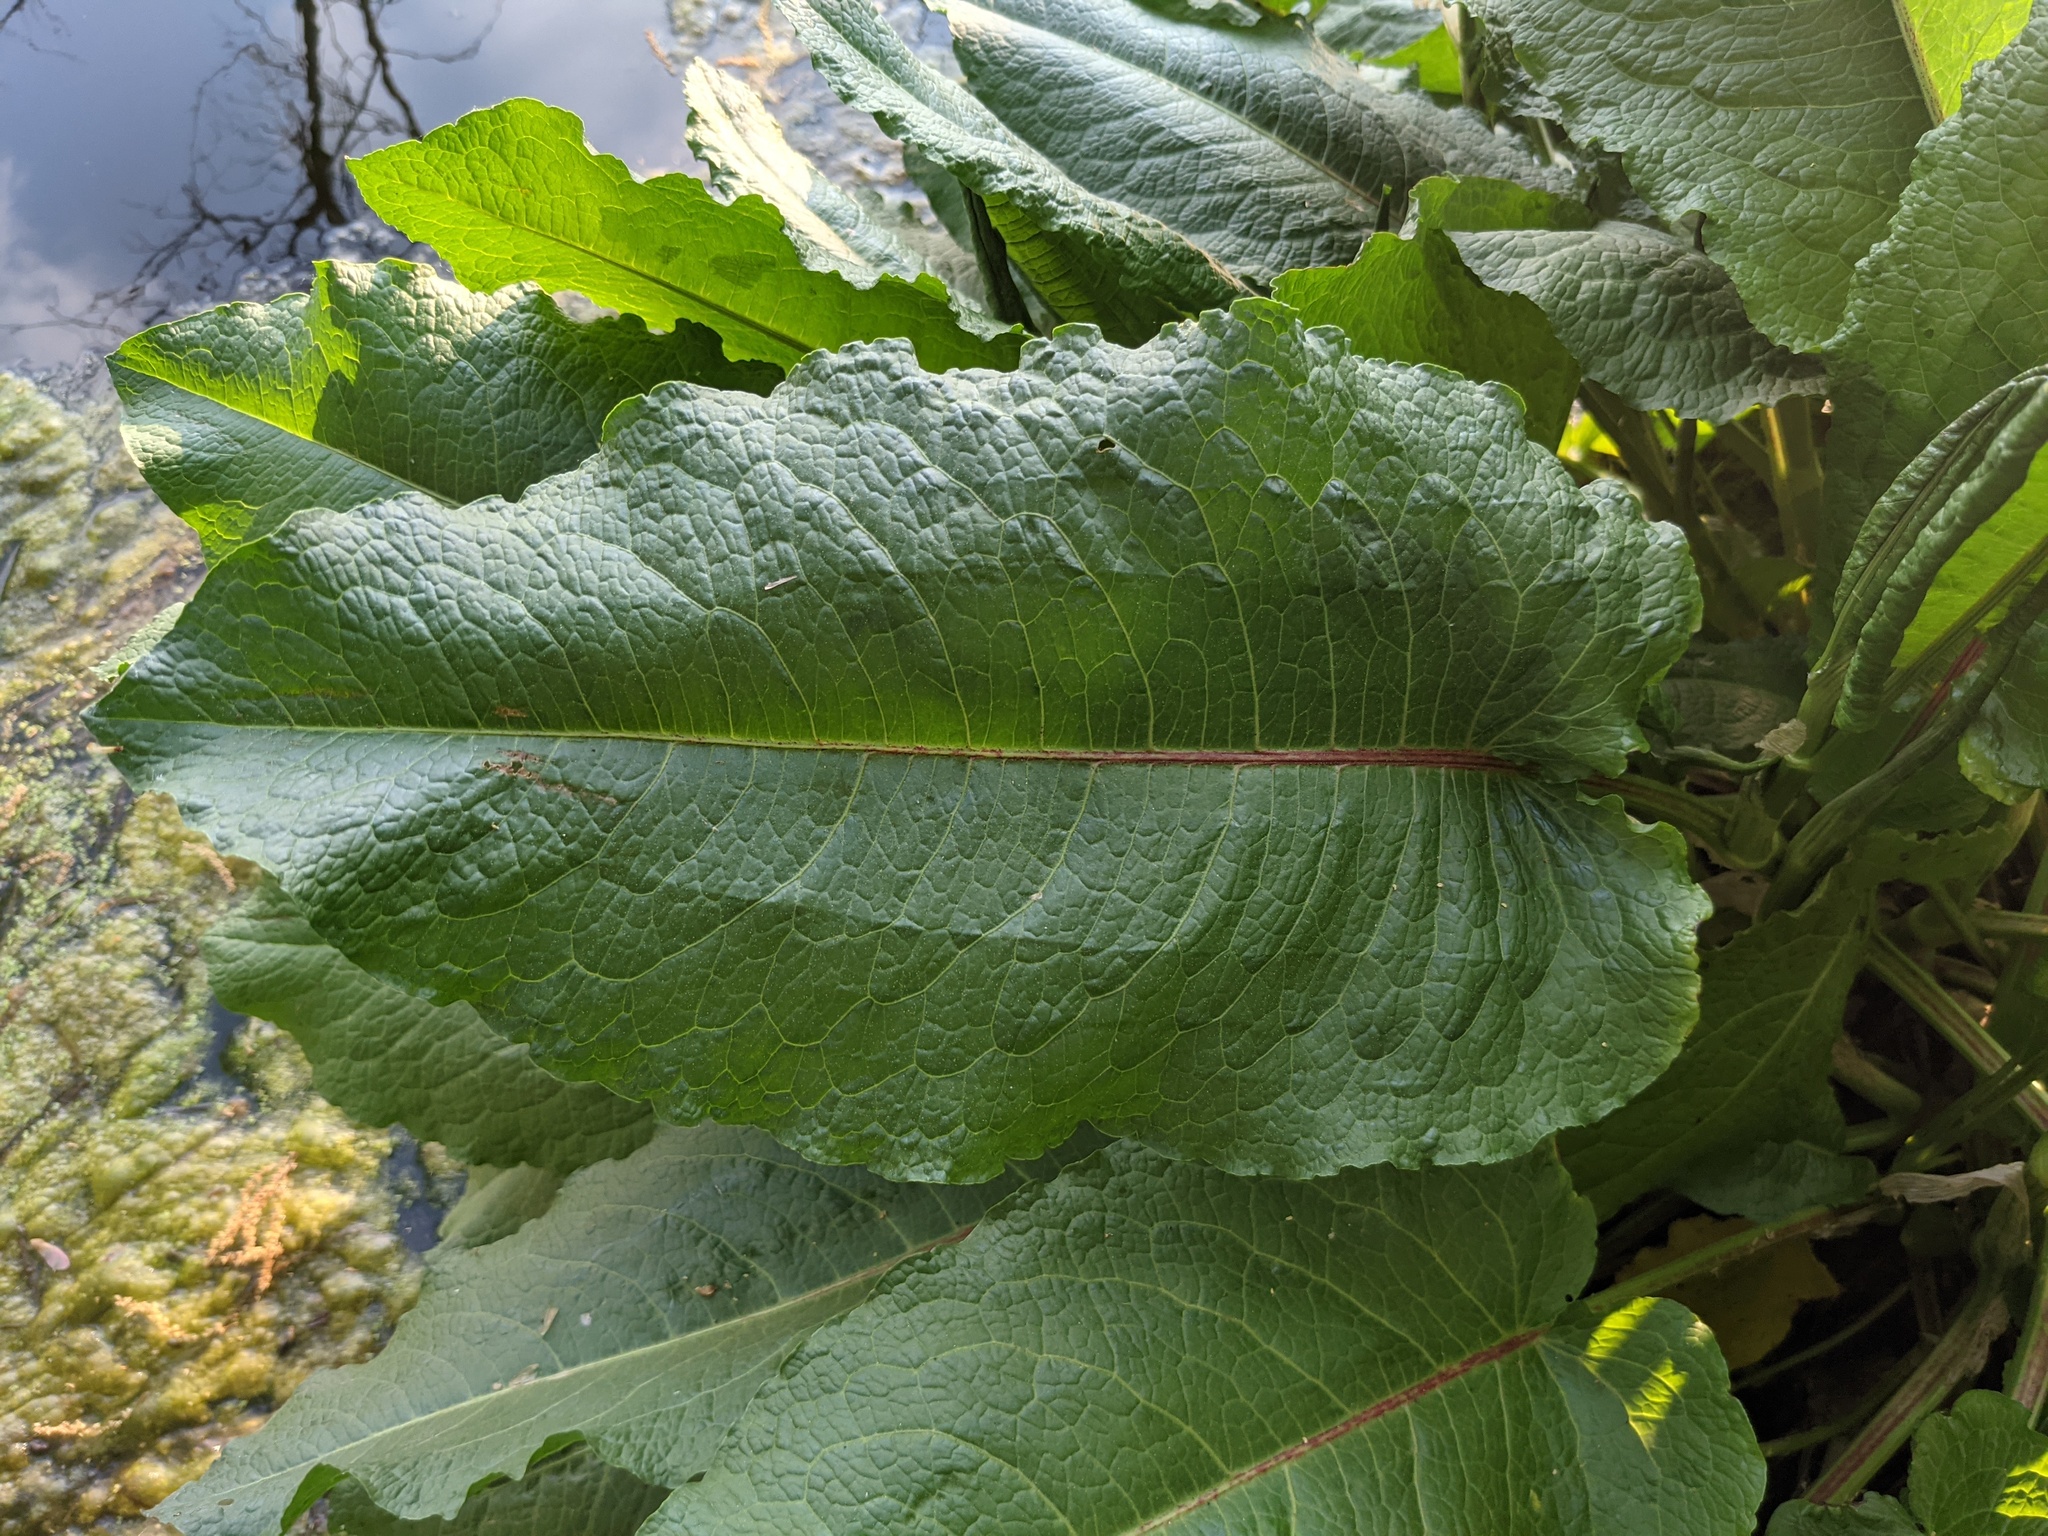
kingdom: Plantae
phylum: Tracheophyta
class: Magnoliopsida
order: Caryophyllales
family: Polygonaceae
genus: Rumex
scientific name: Rumex obtusifolius
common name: Bitter dock
